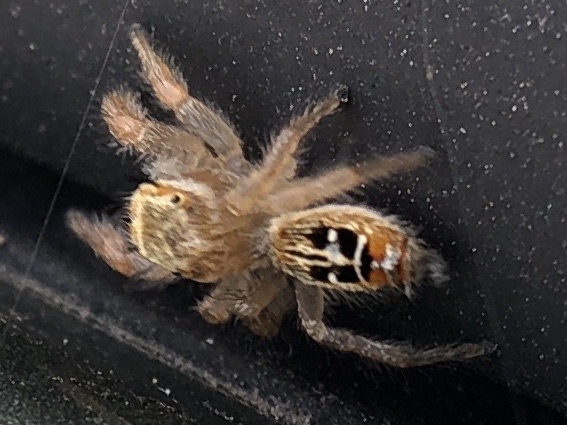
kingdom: Animalia
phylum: Arthropoda
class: Arachnida
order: Araneae
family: Salticidae
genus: Thyene
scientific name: Thyene imperialis
